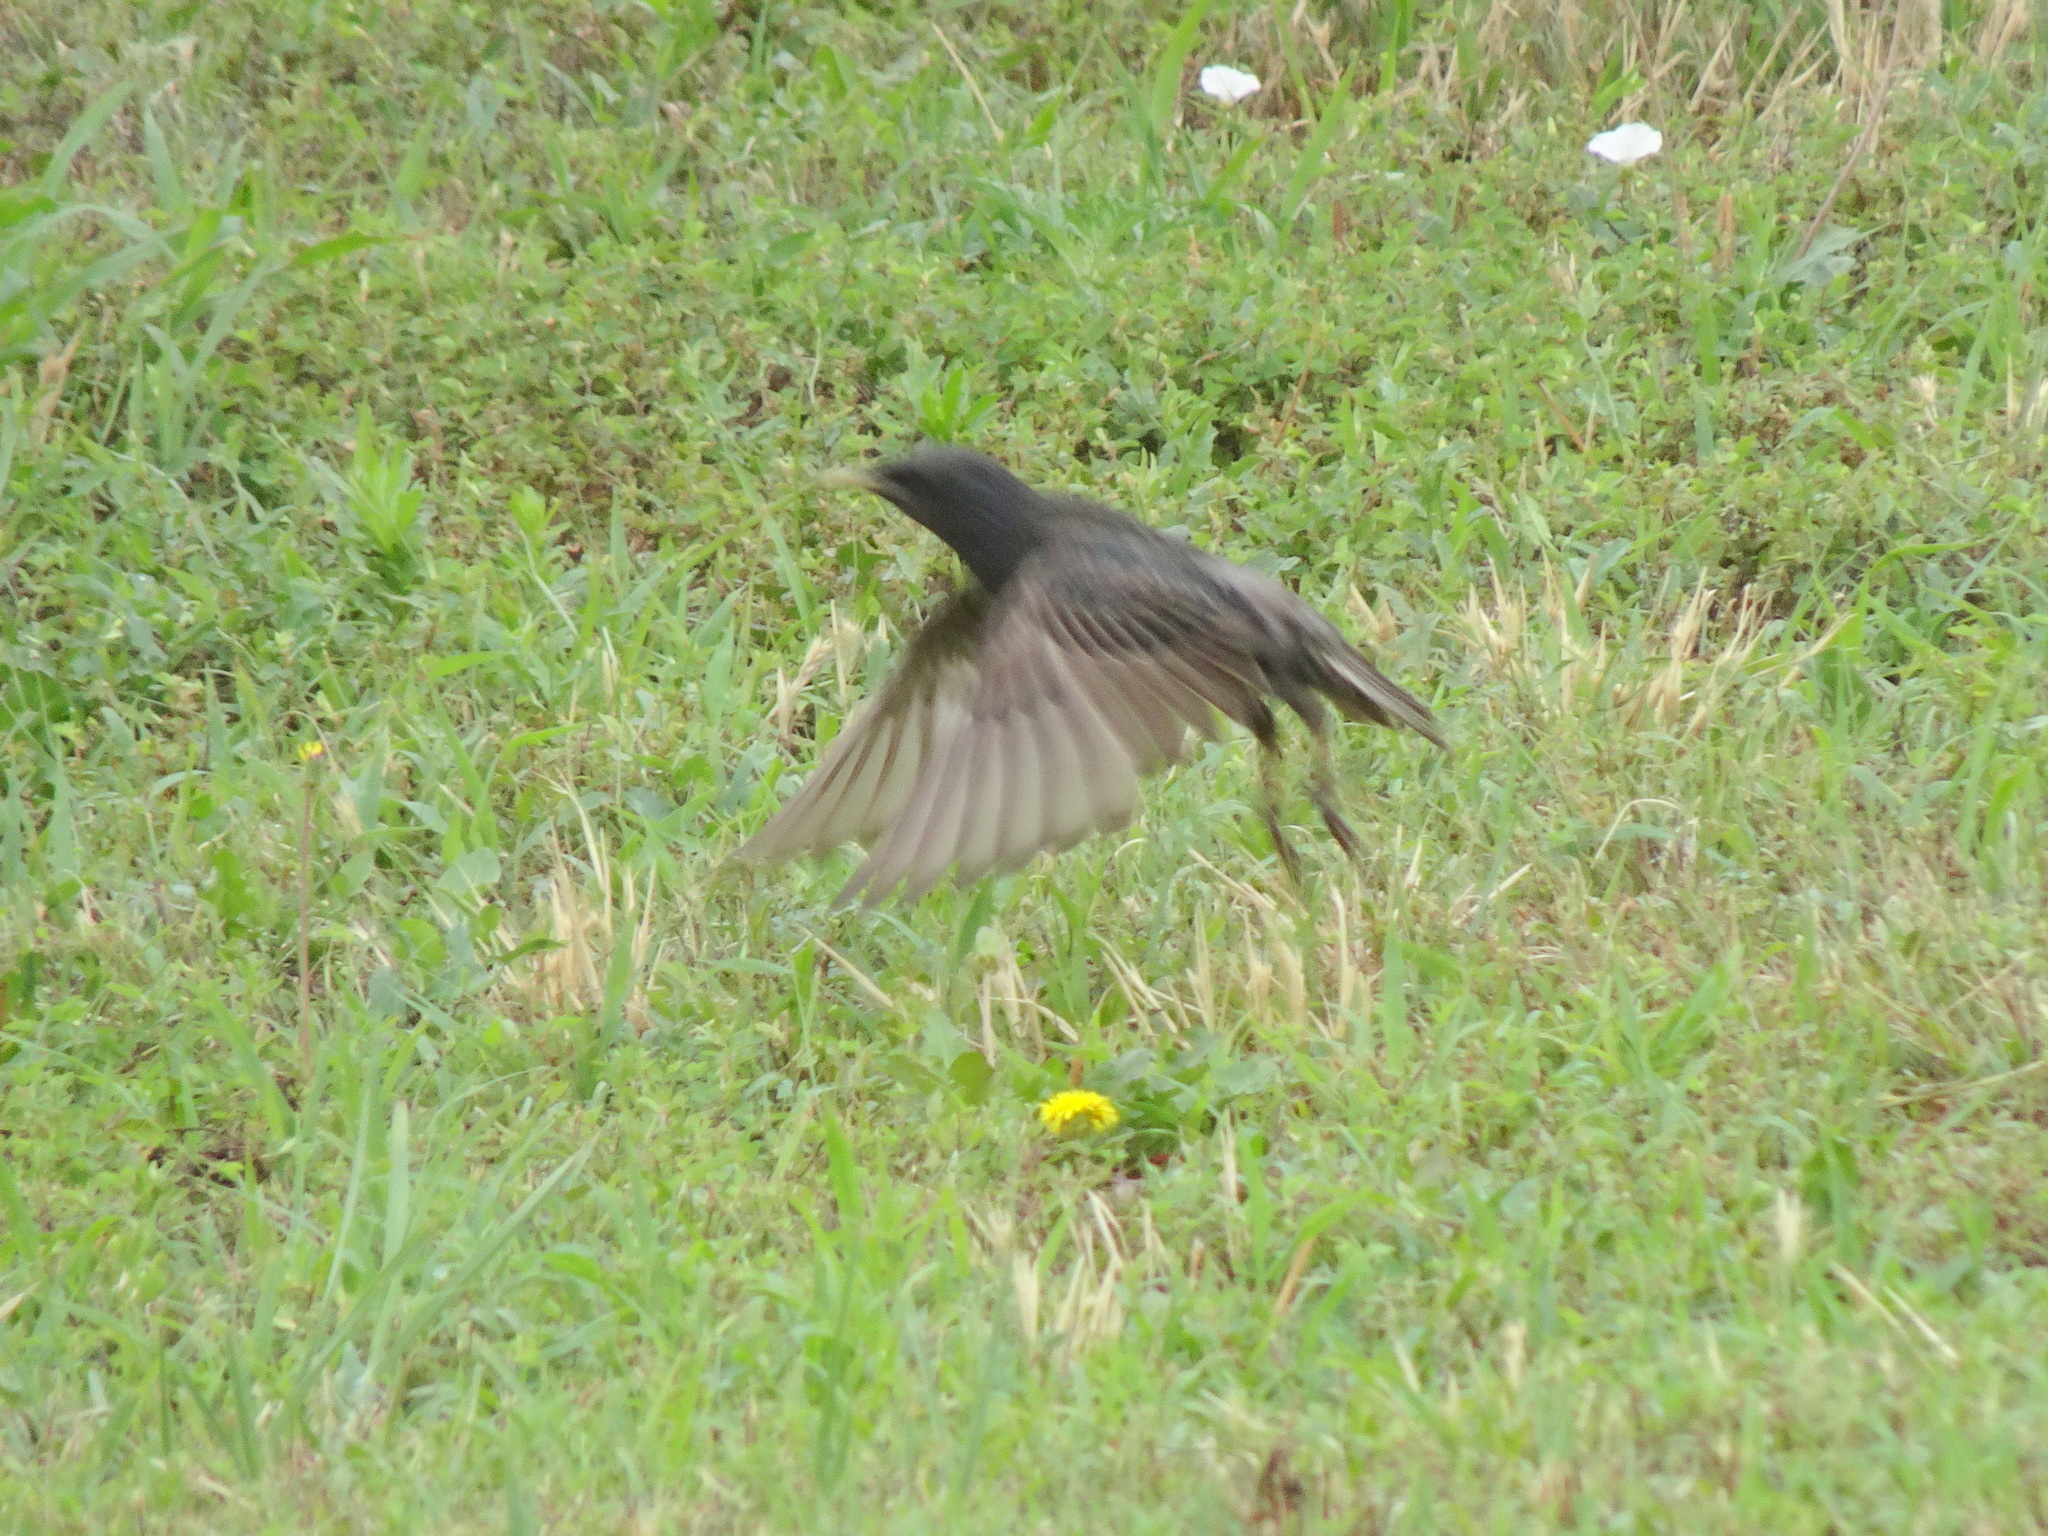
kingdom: Animalia
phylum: Chordata
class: Aves
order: Passeriformes
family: Sturnidae
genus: Sturnus
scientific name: Sturnus vulgaris
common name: Common starling
